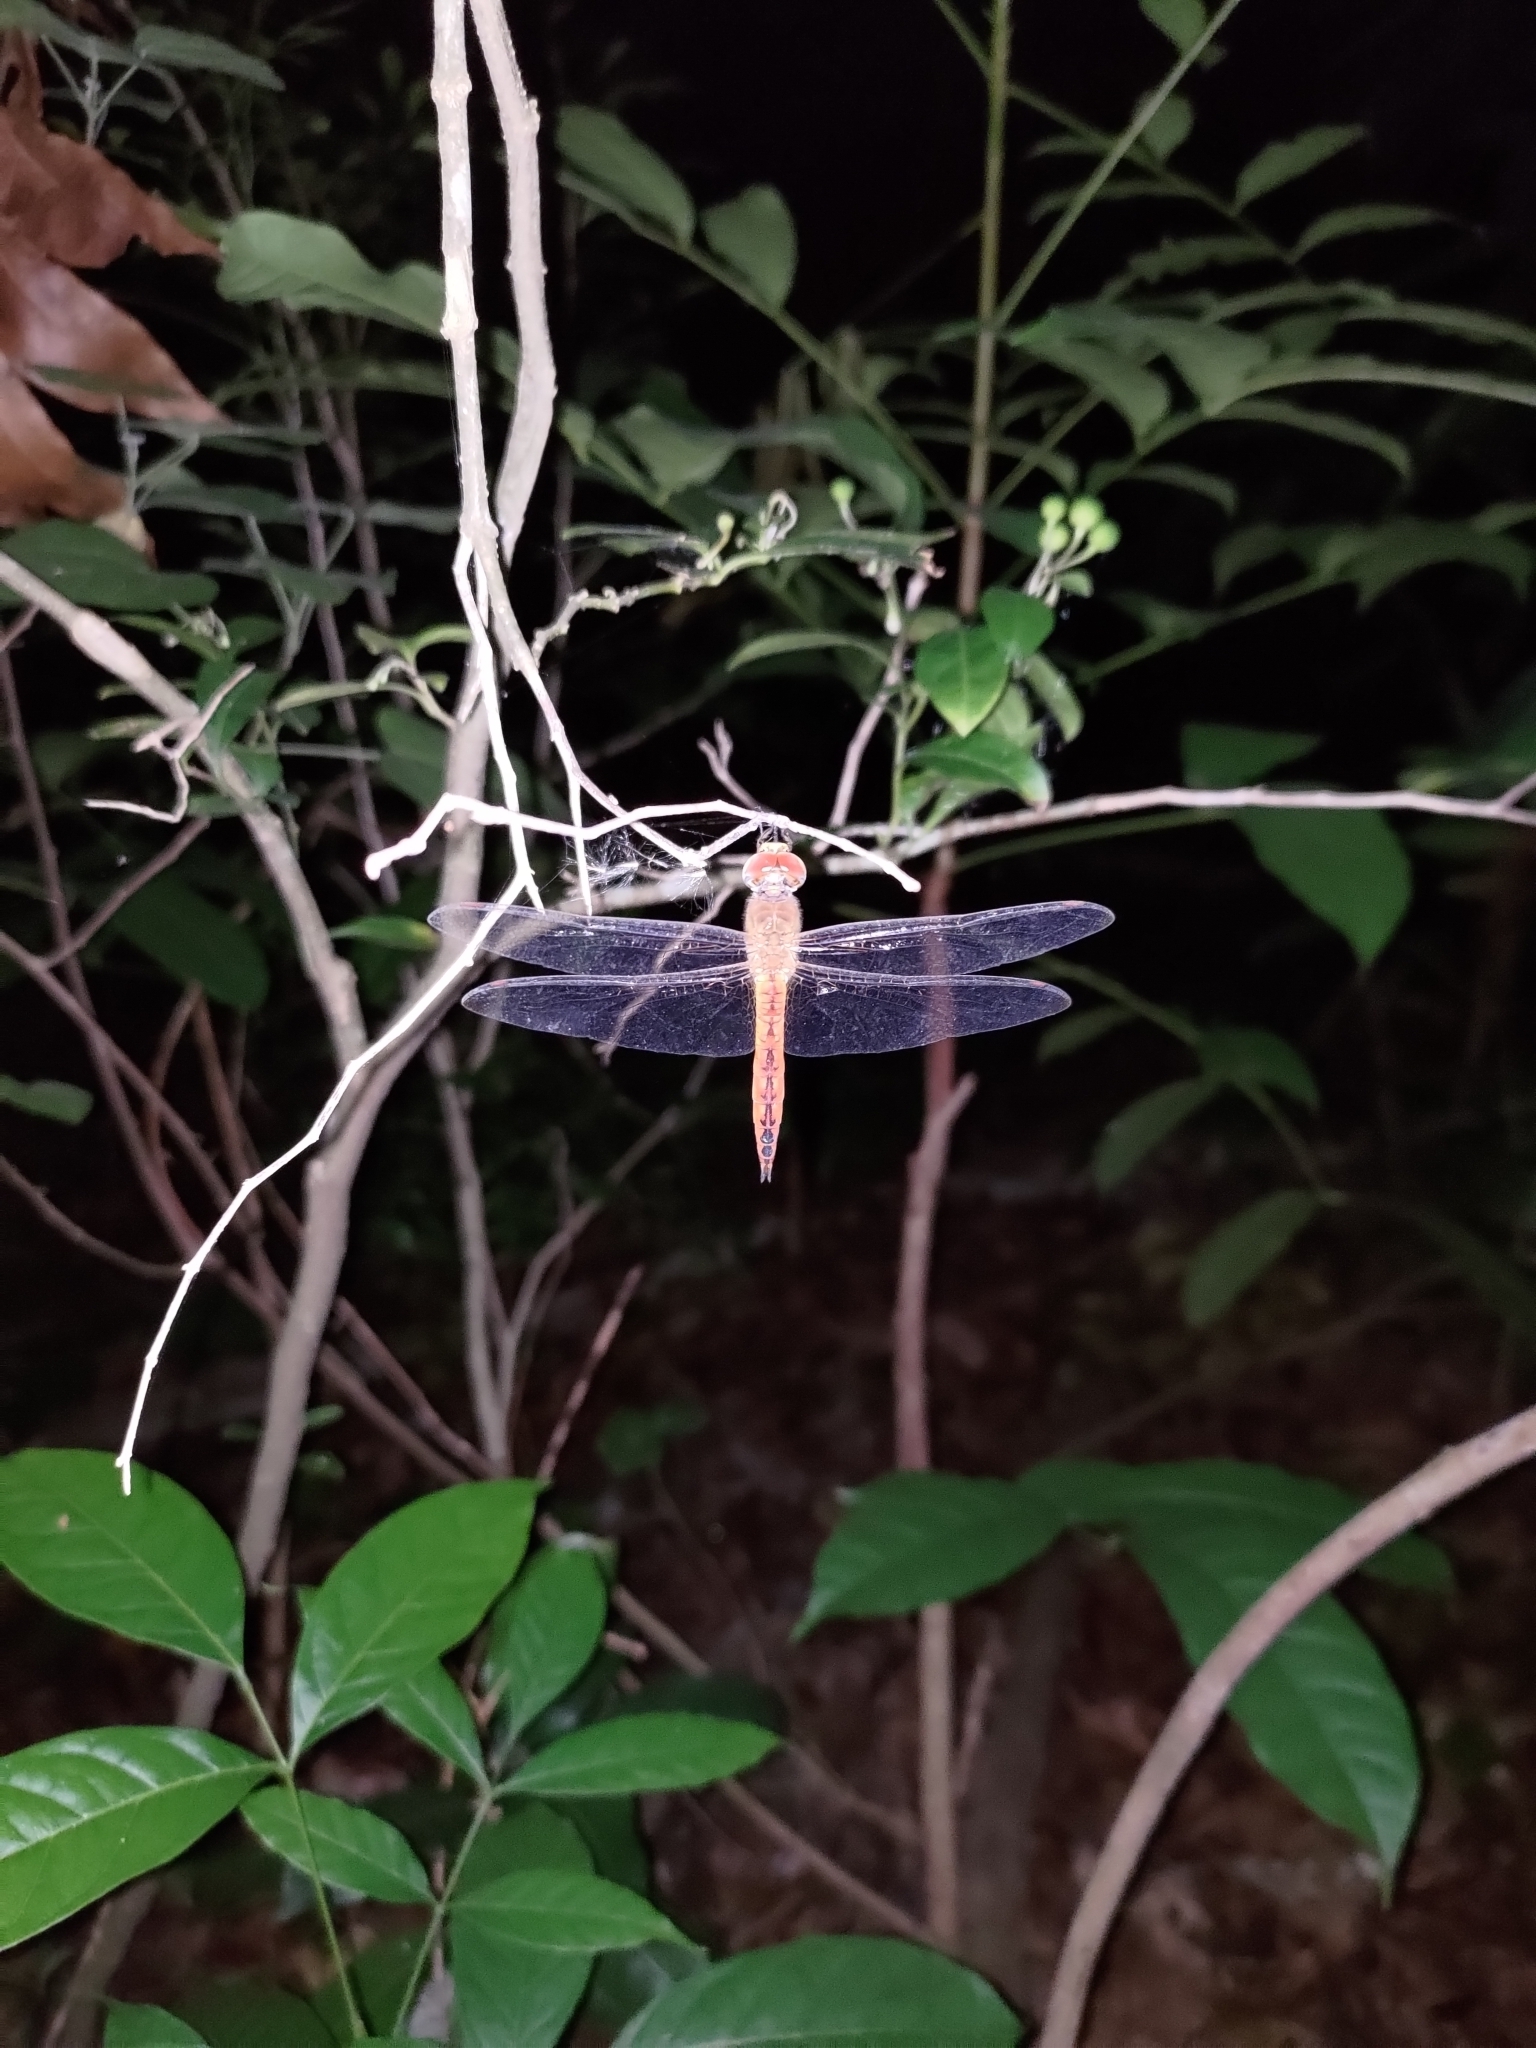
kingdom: Animalia
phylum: Arthropoda
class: Insecta
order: Odonata
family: Libellulidae
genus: Pantala
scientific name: Pantala flavescens
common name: Wandering glider
